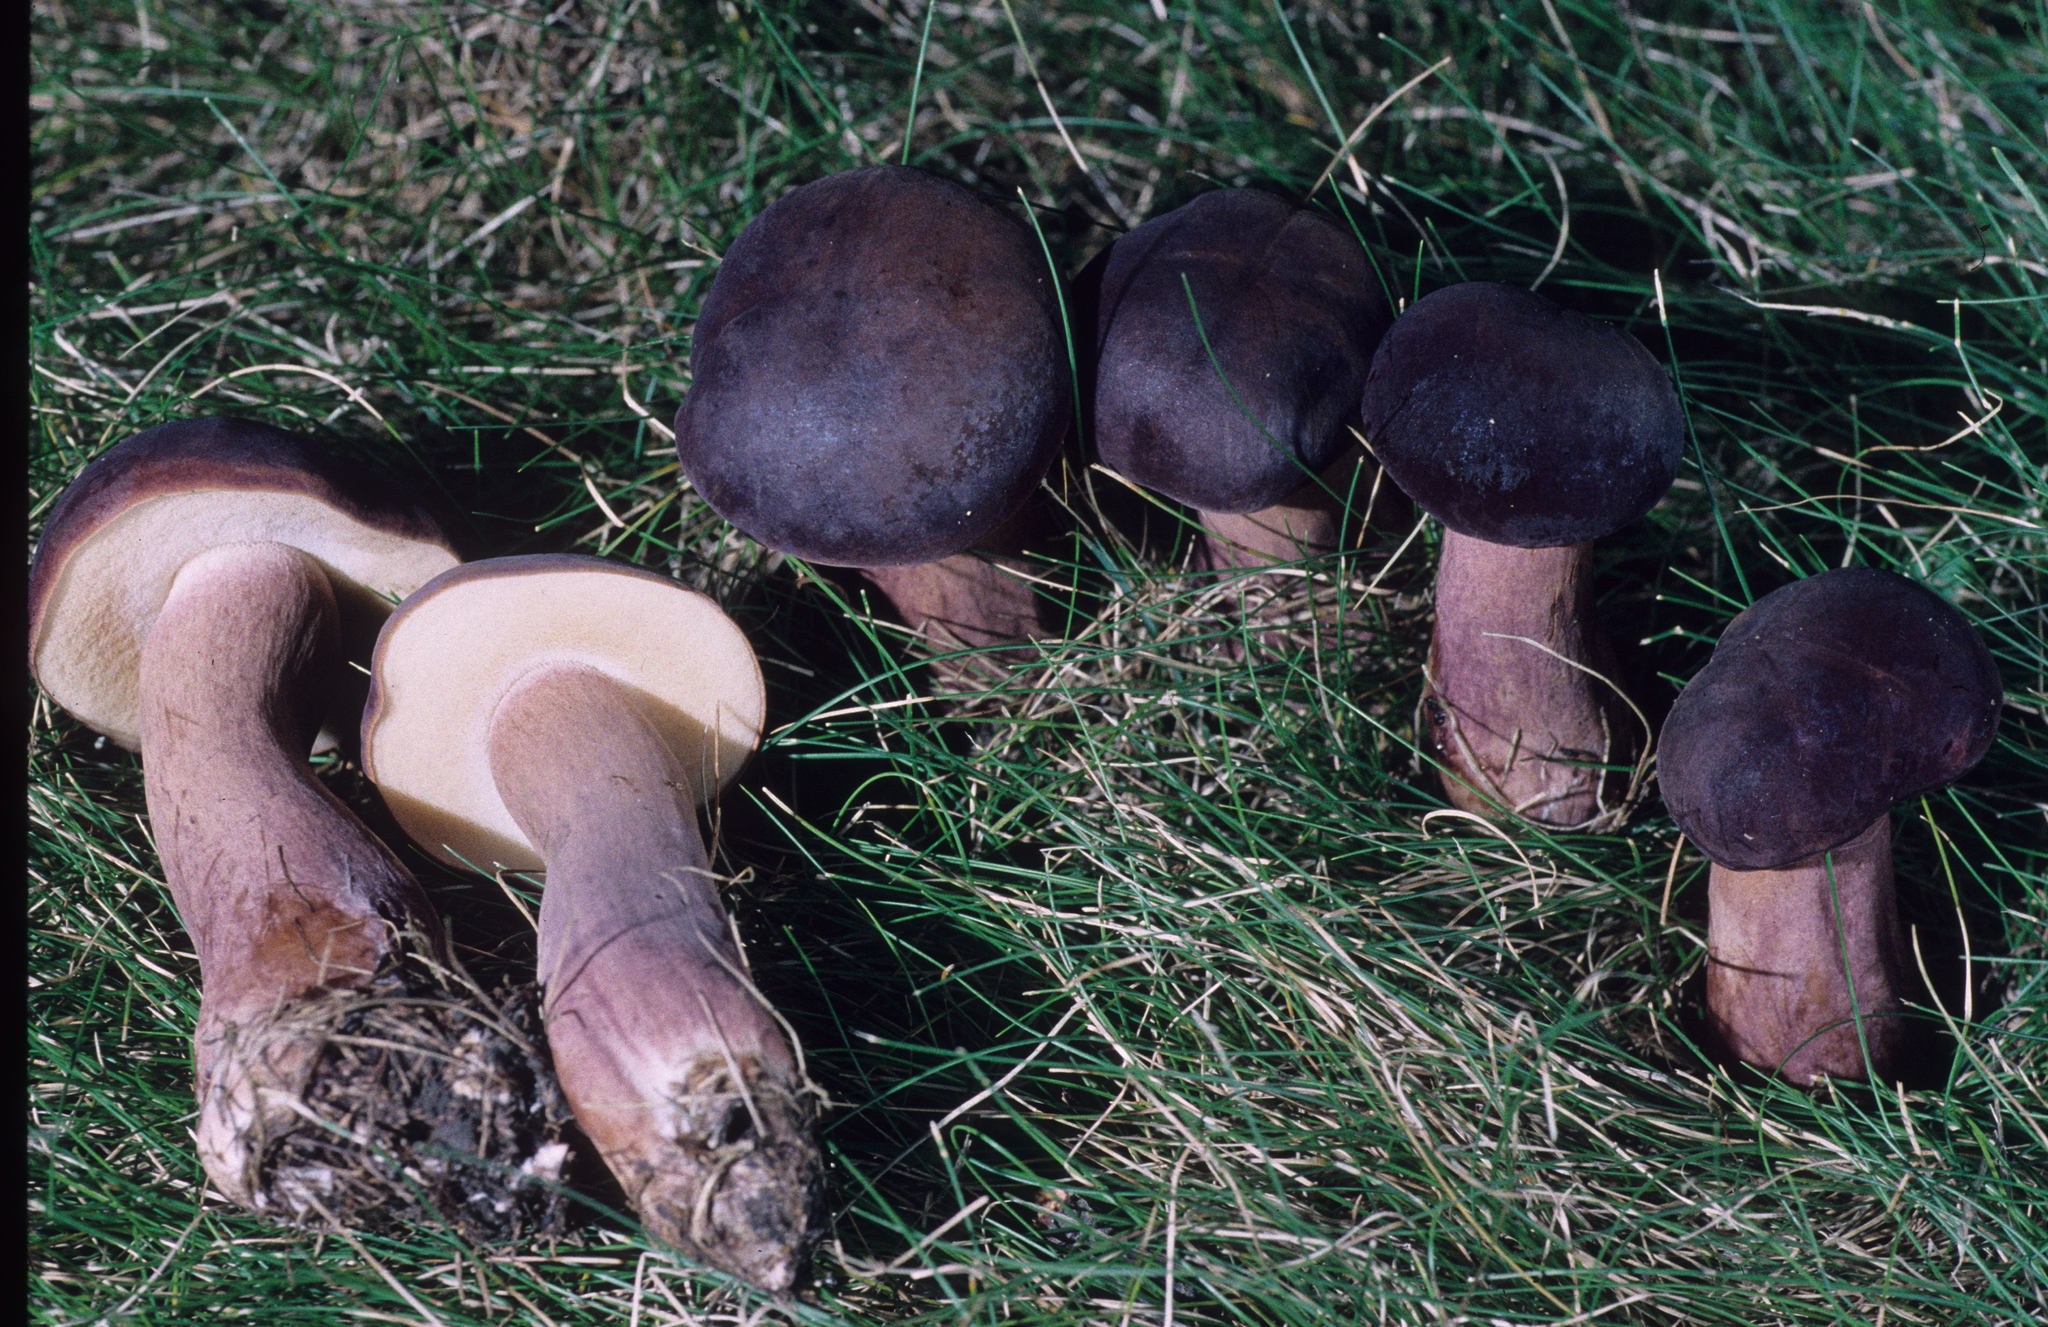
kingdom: Fungi
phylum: Basidiomycota
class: Agaricomycetes
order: Boletales
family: Boletaceae
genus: Xanthoconium
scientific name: Xanthoconium purpureum
